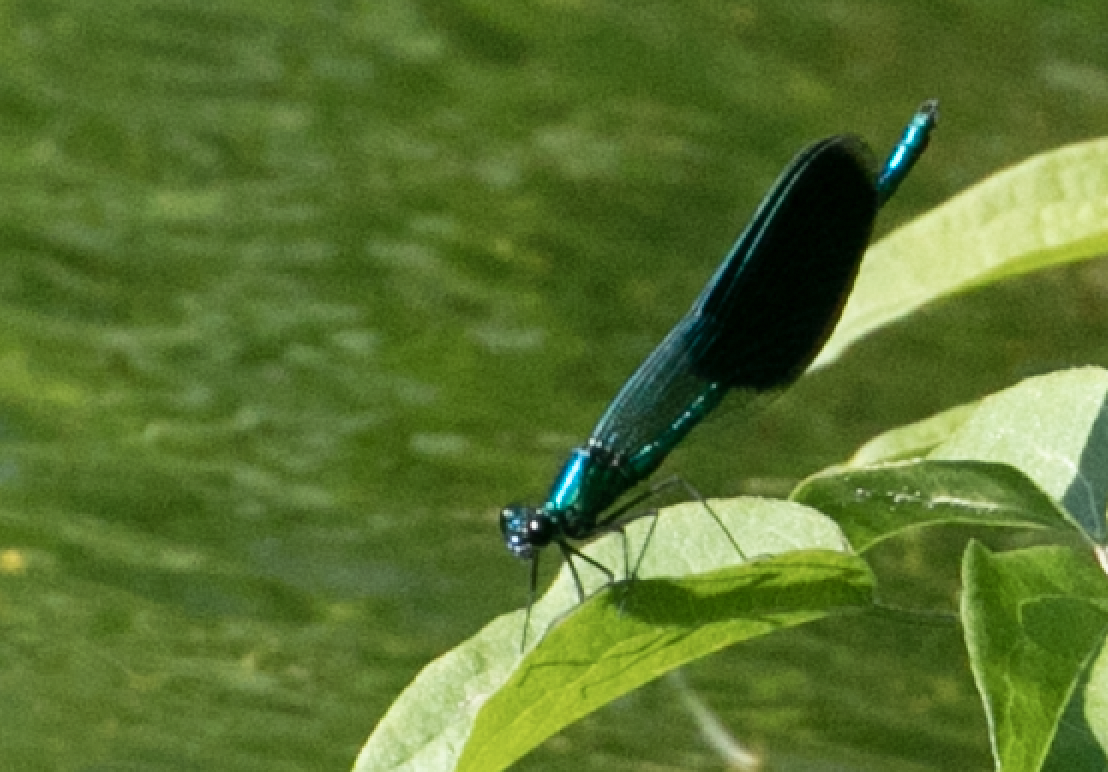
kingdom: Animalia
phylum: Arthropoda
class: Insecta
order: Odonata
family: Calopterygidae
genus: Calopteryx
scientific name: Calopteryx splendens
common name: Banded demoiselle
